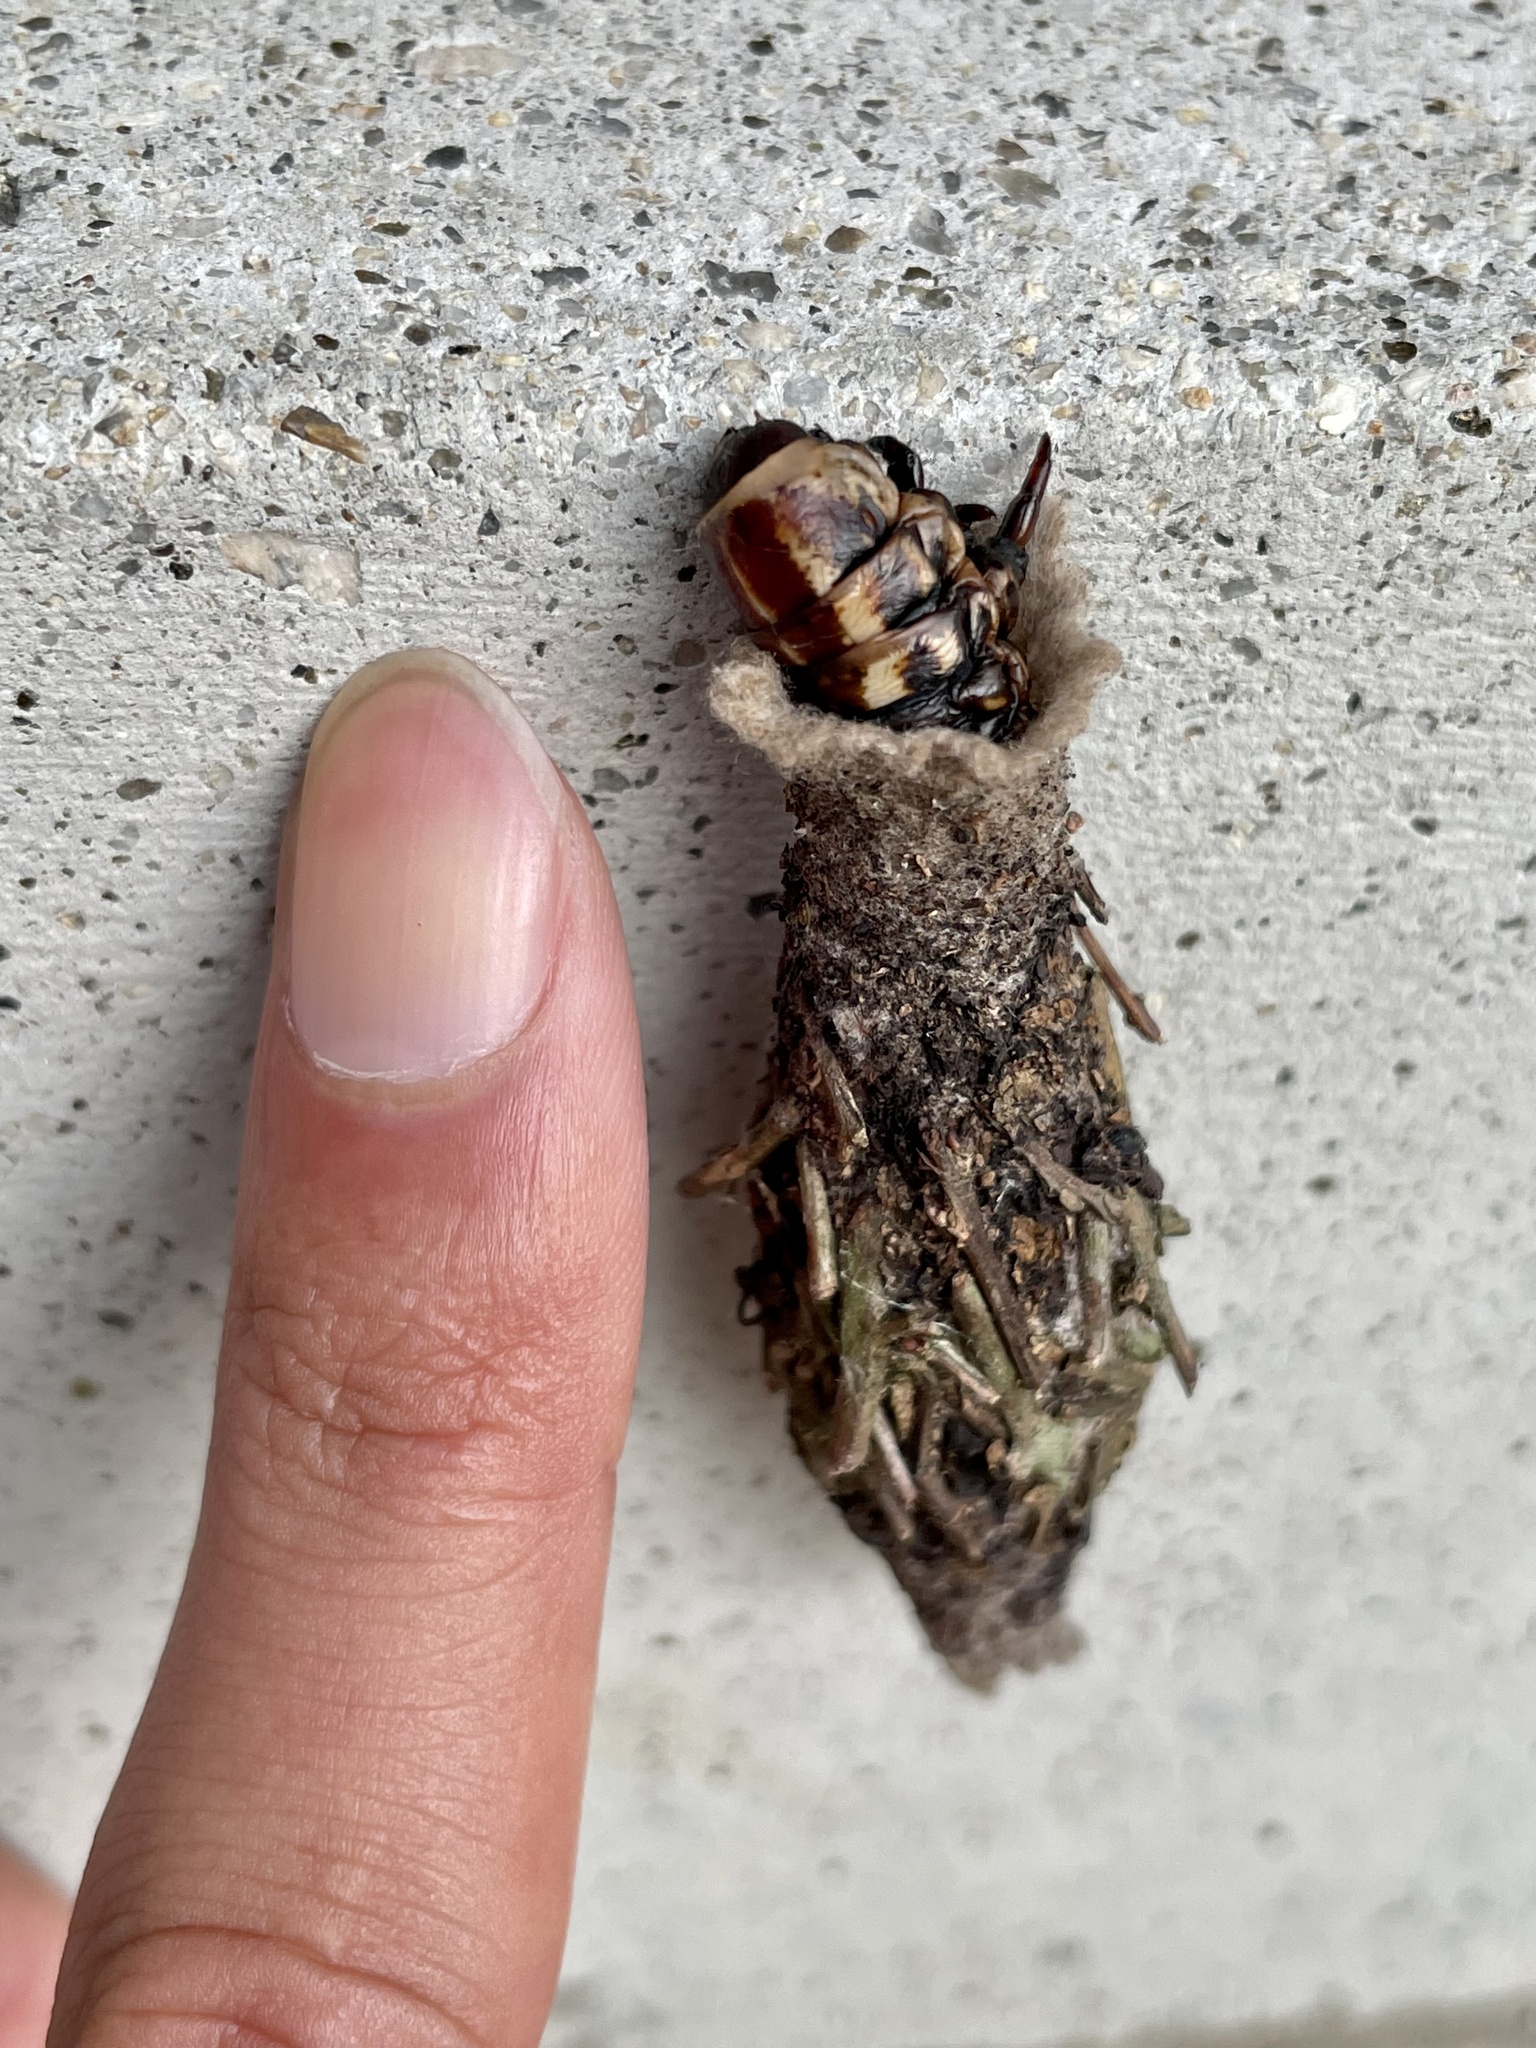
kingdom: Animalia
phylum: Arthropoda
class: Insecta
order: Lepidoptera
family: Psychidae
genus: Eumeta
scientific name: Eumeta variegatus
